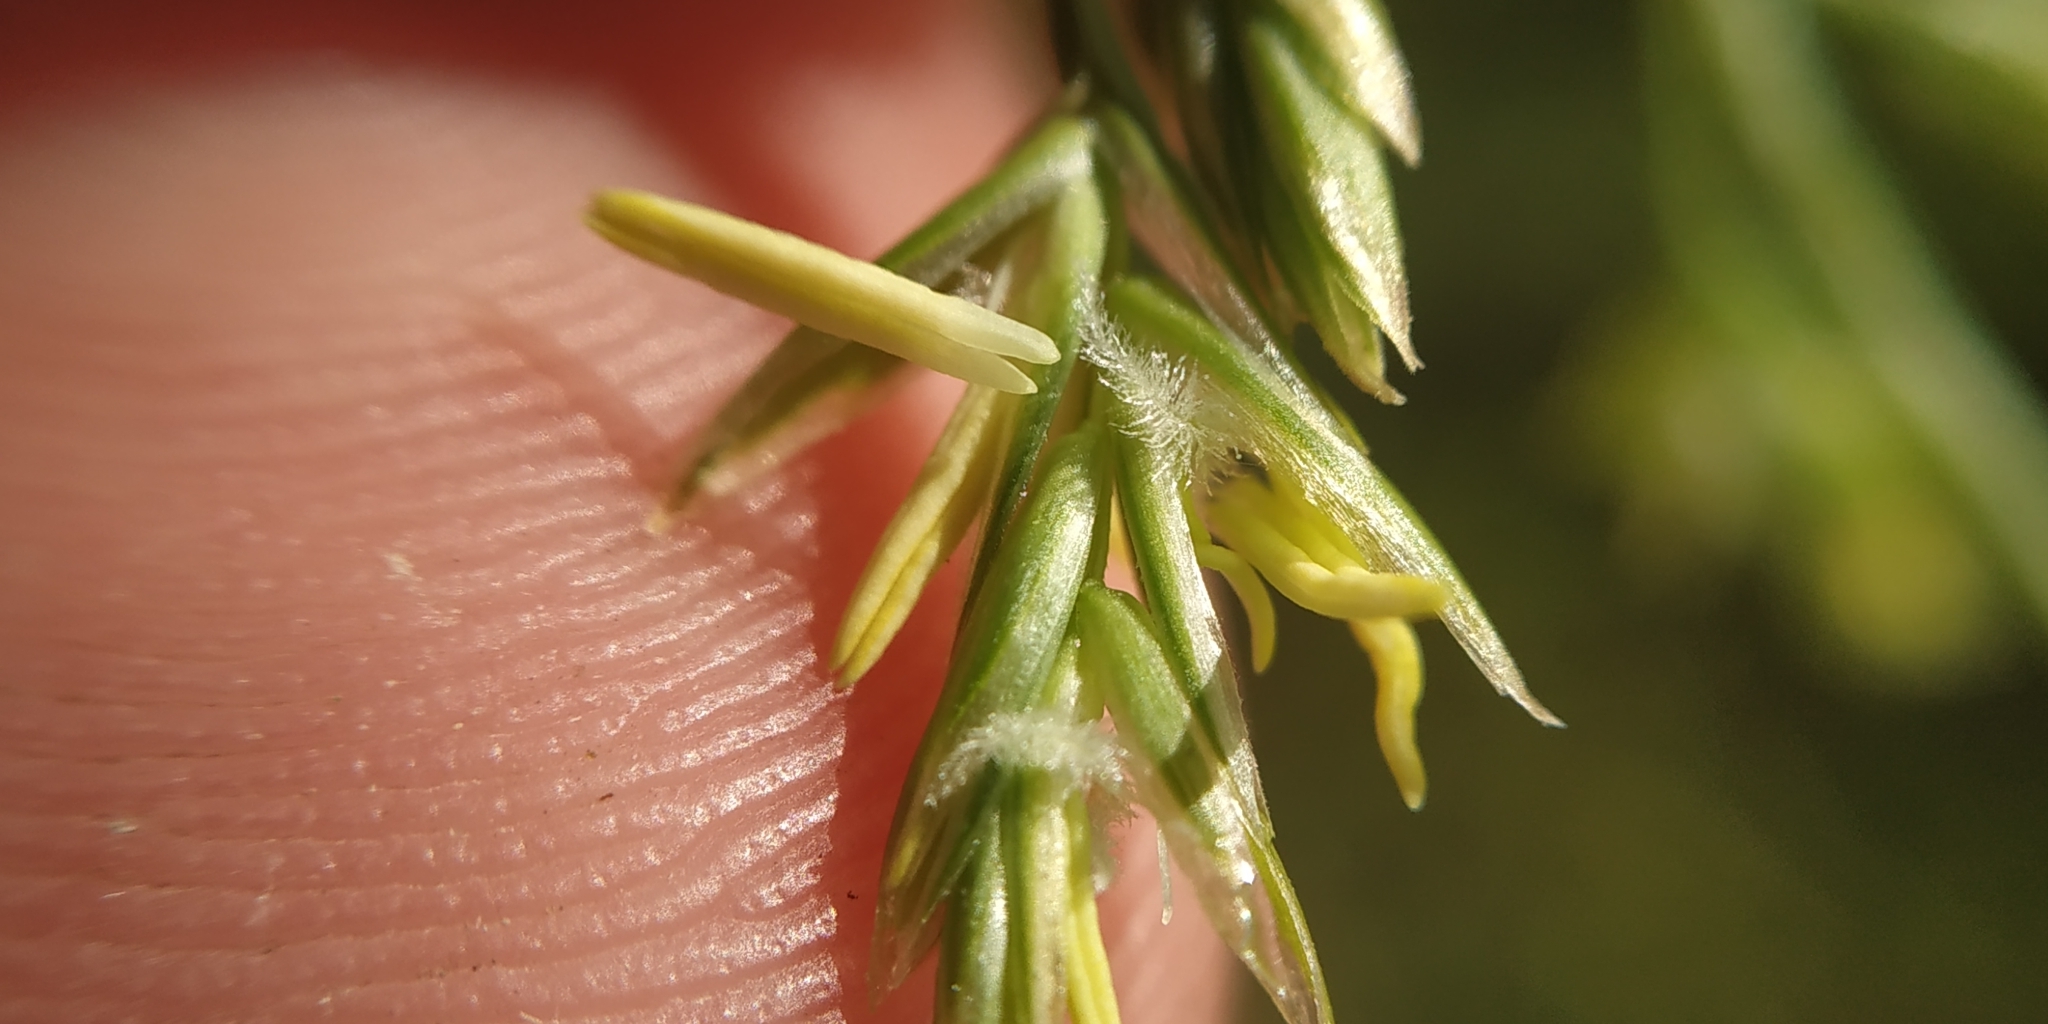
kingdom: Plantae
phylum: Tracheophyta
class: Liliopsida
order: Poales
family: Poaceae
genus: Lolium
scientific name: Lolium pratense
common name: Dover grass
